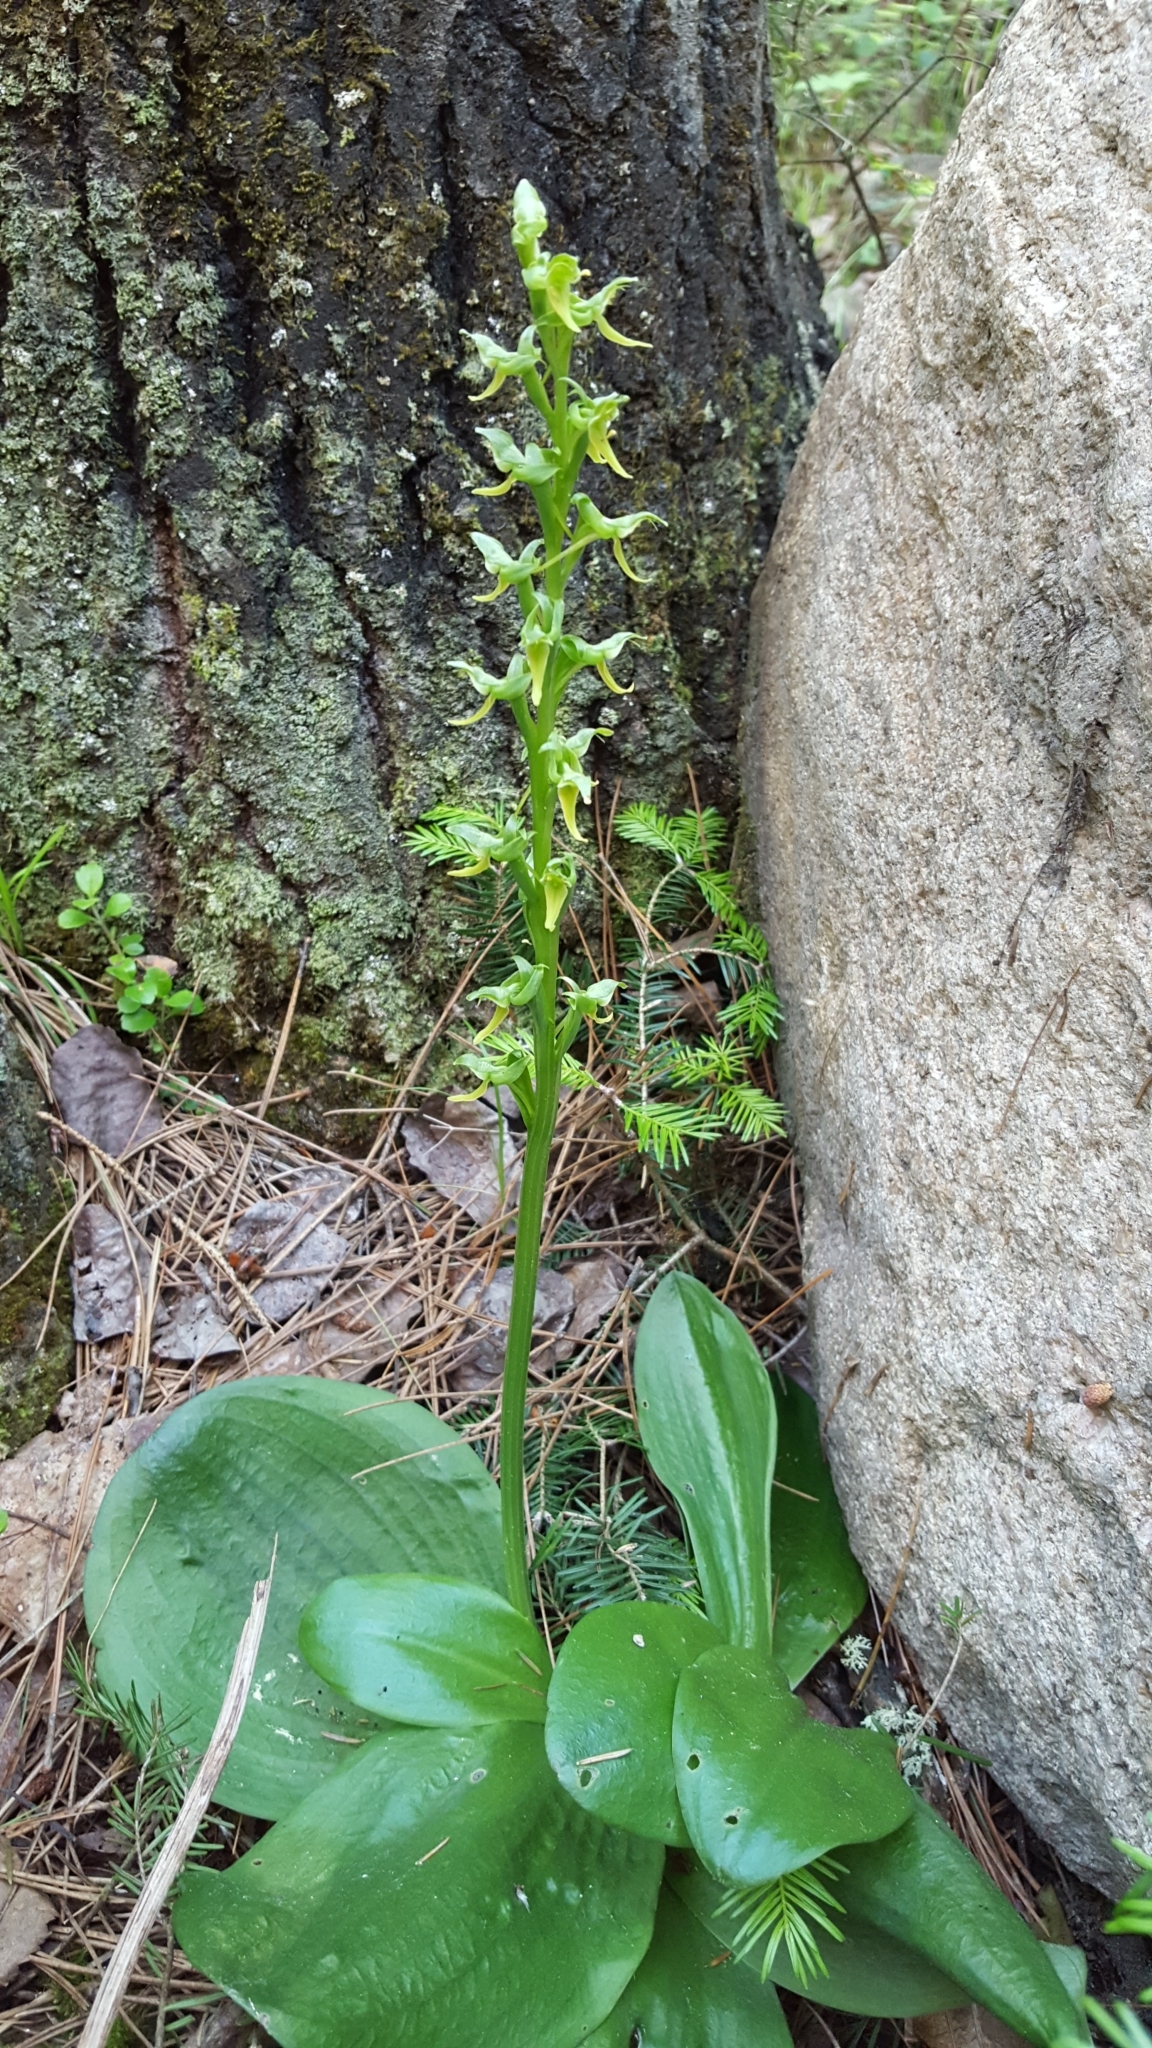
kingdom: Plantae
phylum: Tracheophyta
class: Liliopsida
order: Asparagales
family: Orchidaceae
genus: Platanthera
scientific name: Platanthera hookeri
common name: Hooker's orchid
